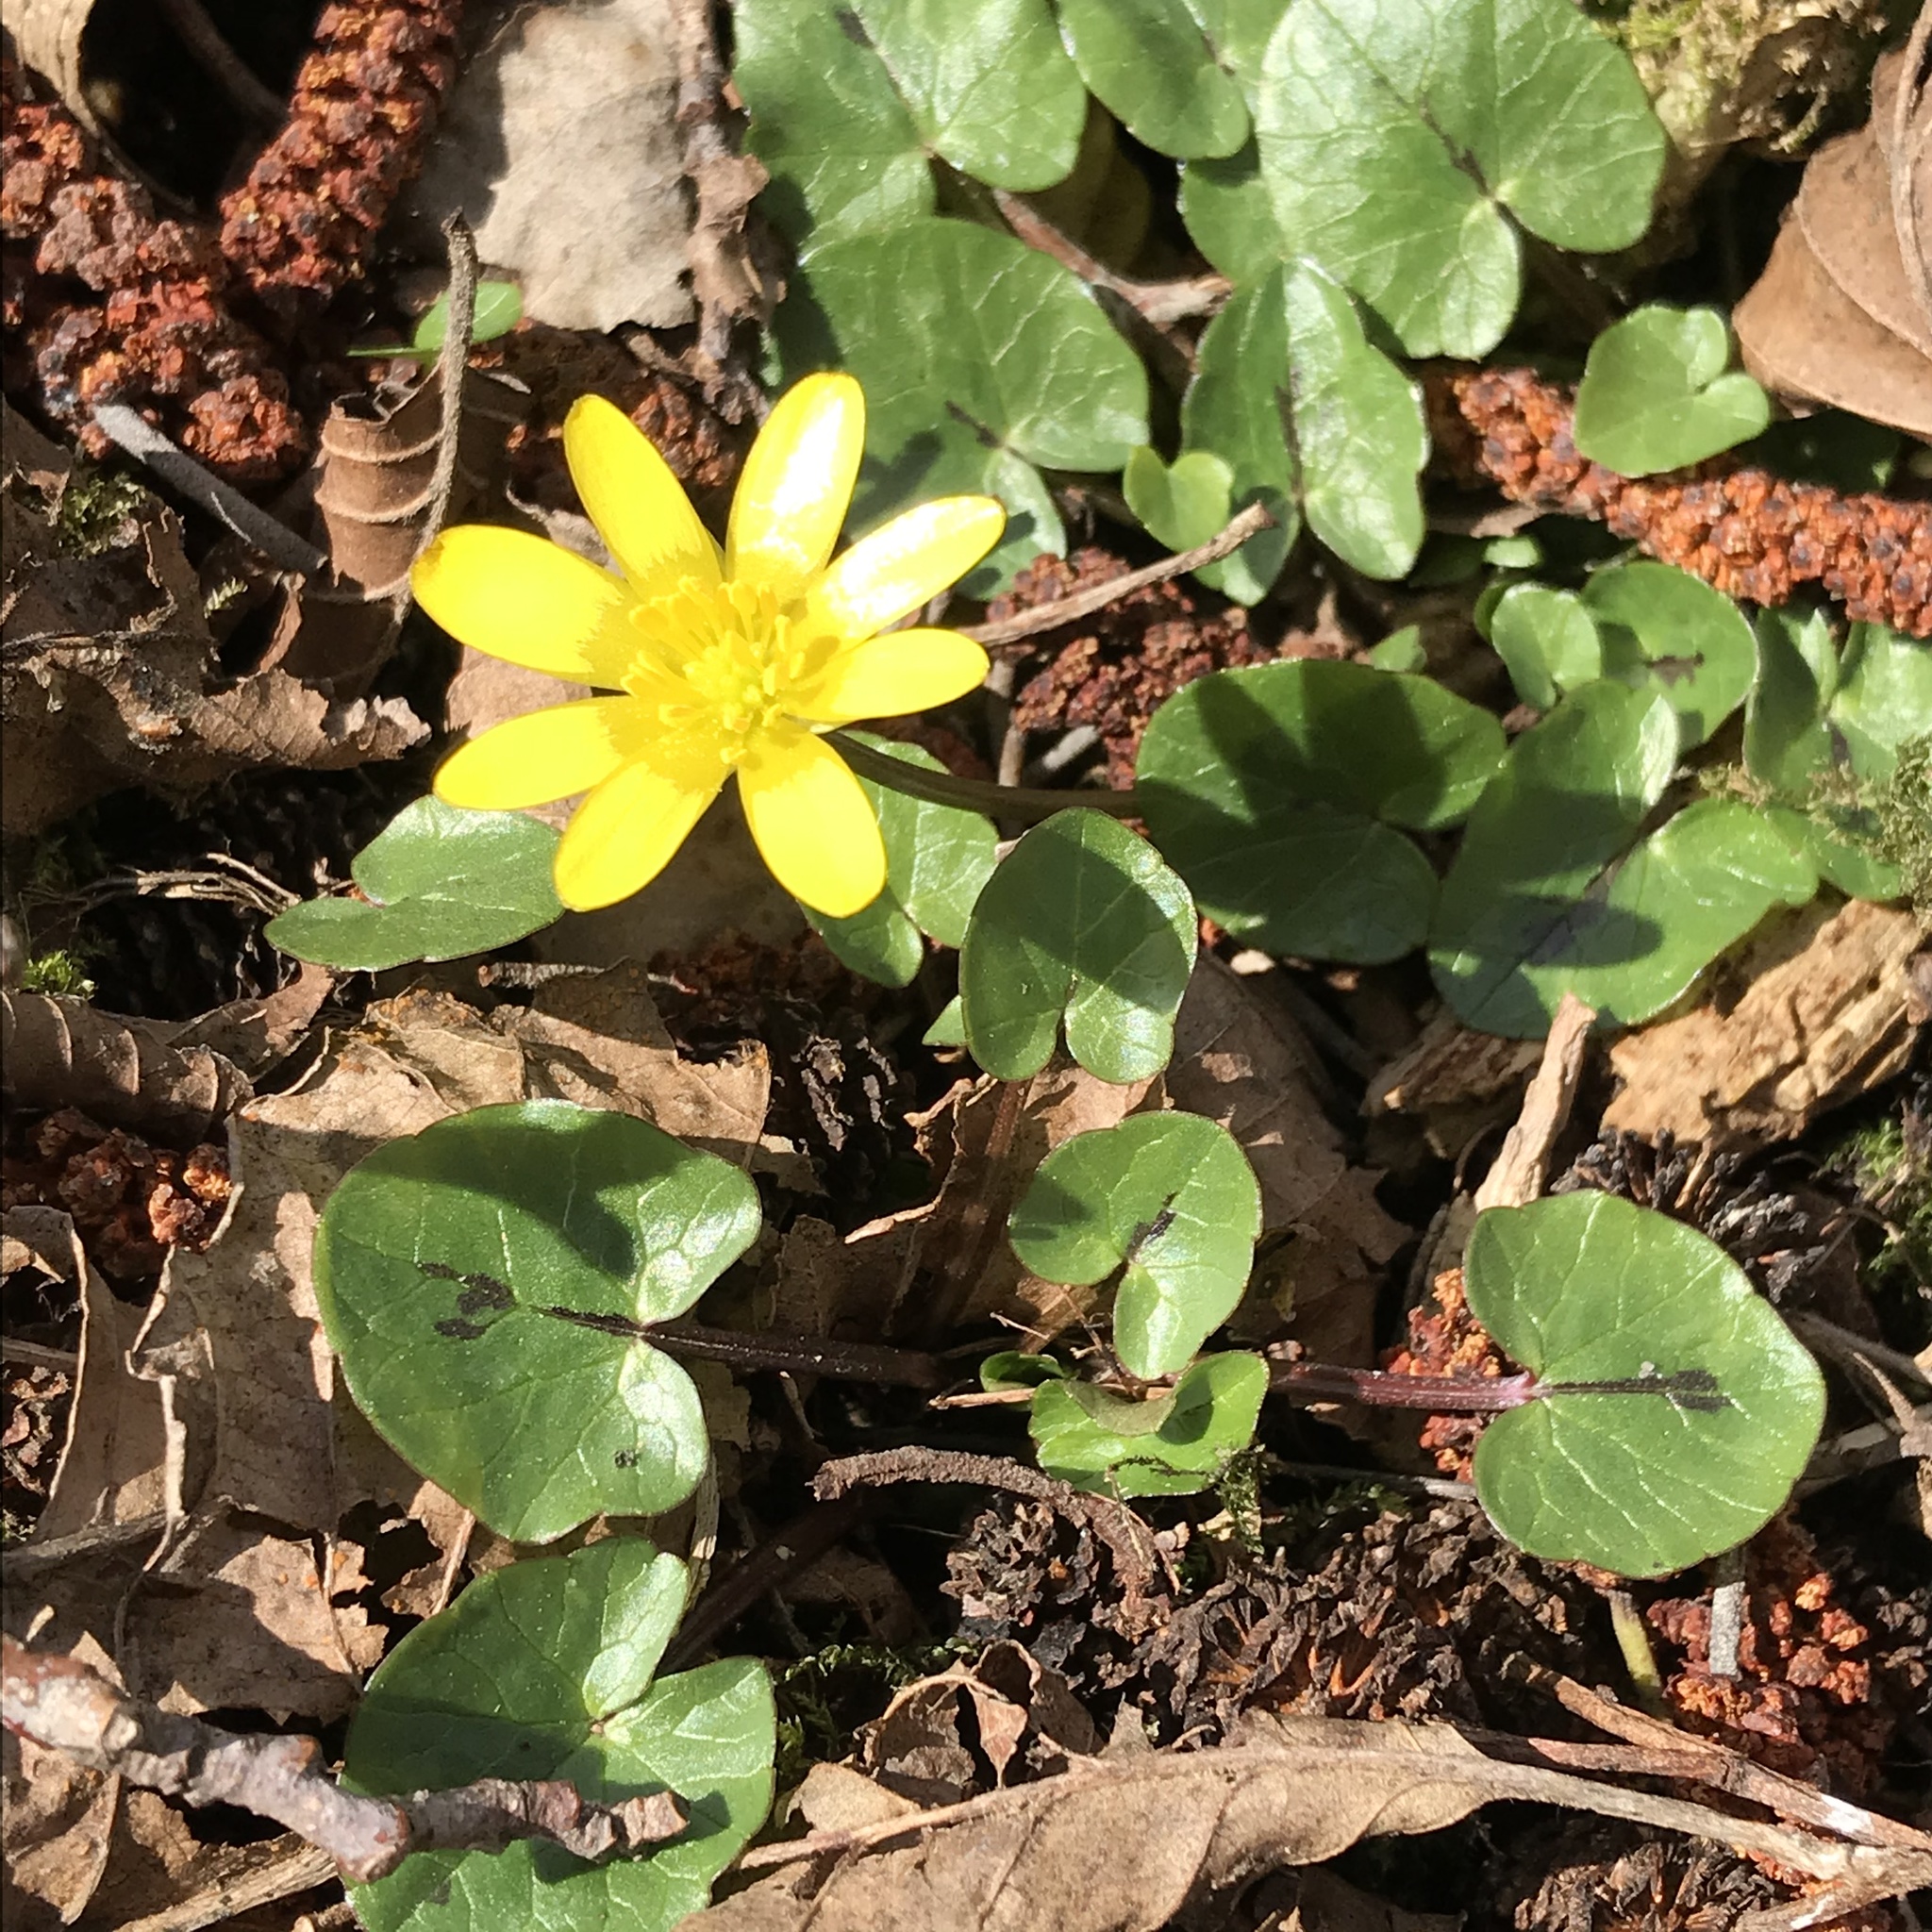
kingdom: Plantae
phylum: Tracheophyta
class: Magnoliopsida
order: Ranunculales
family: Ranunculaceae
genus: Ficaria
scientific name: Ficaria verna
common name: Lesser celandine
